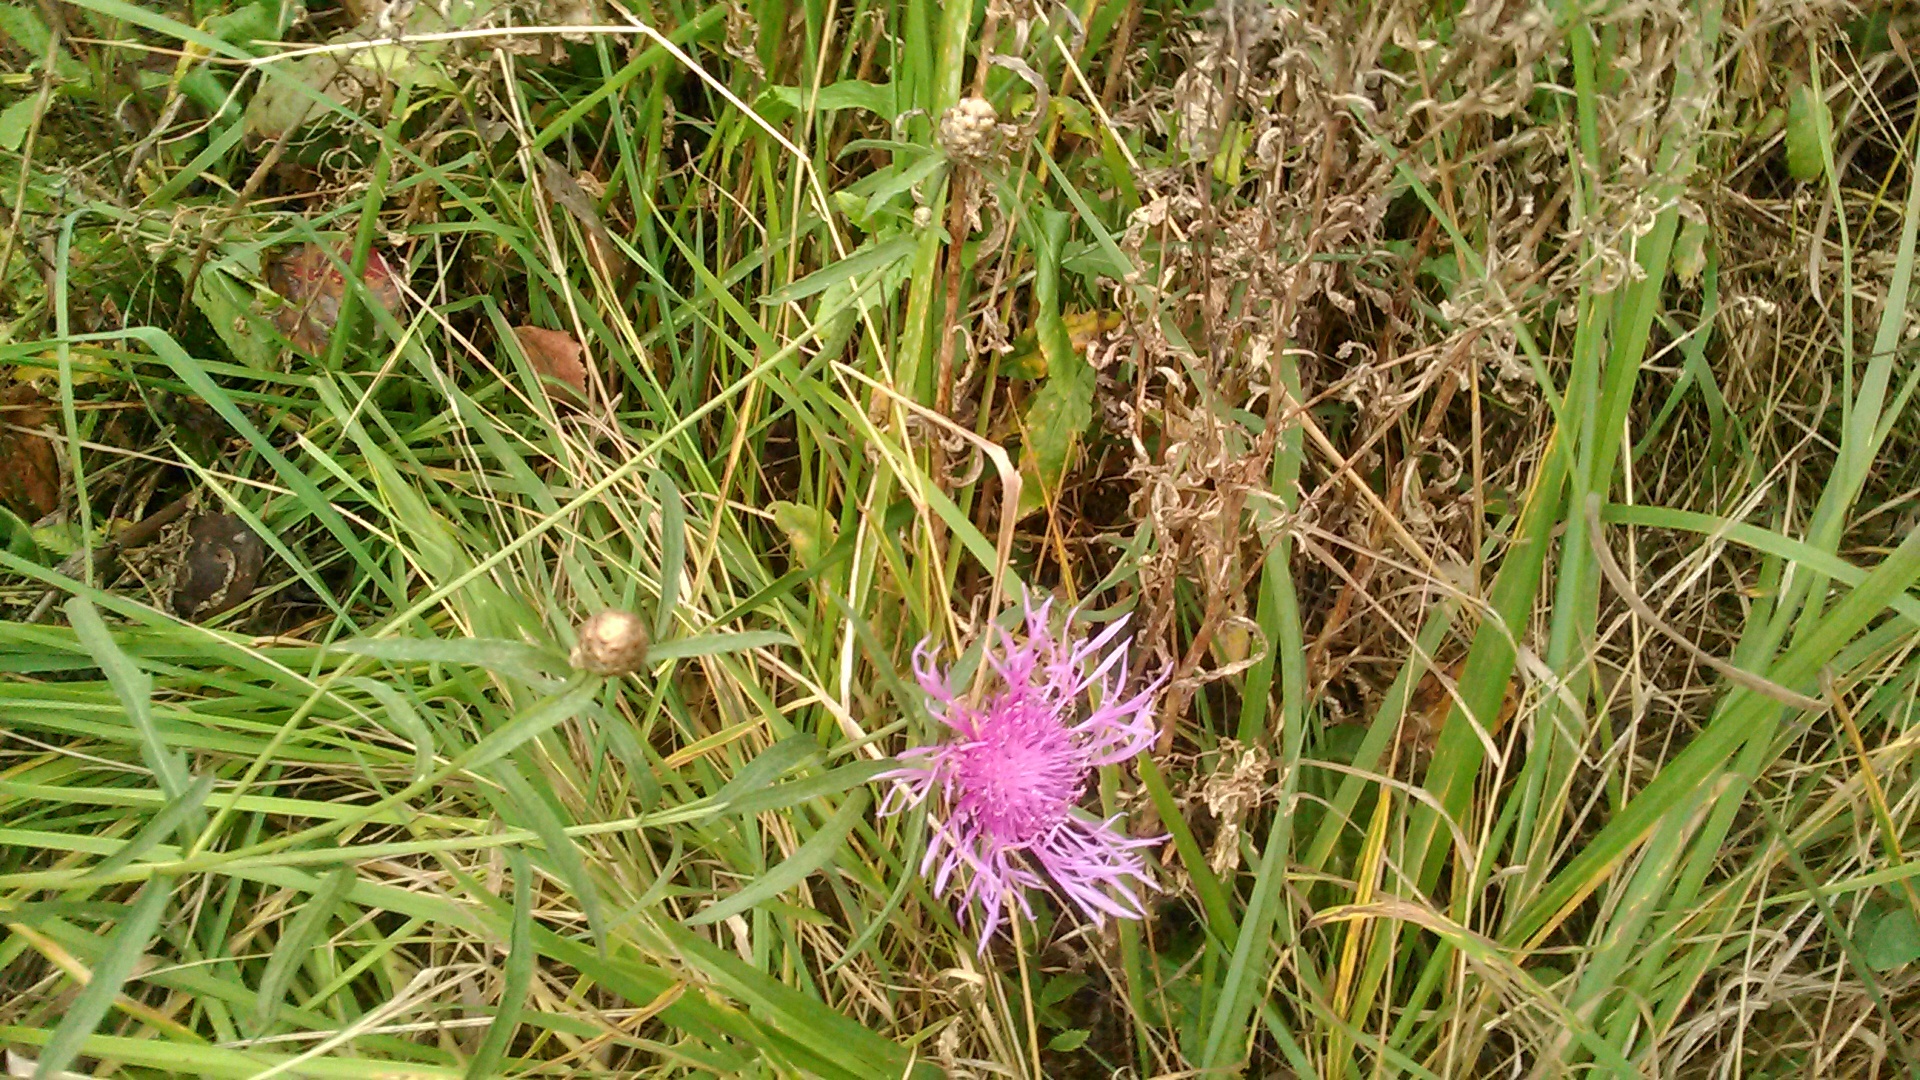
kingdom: Plantae
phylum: Tracheophyta
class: Magnoliopsida
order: Asterales
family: Asteraceae
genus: Centaurea
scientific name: Centaurea jacea
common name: Brown knapweed
